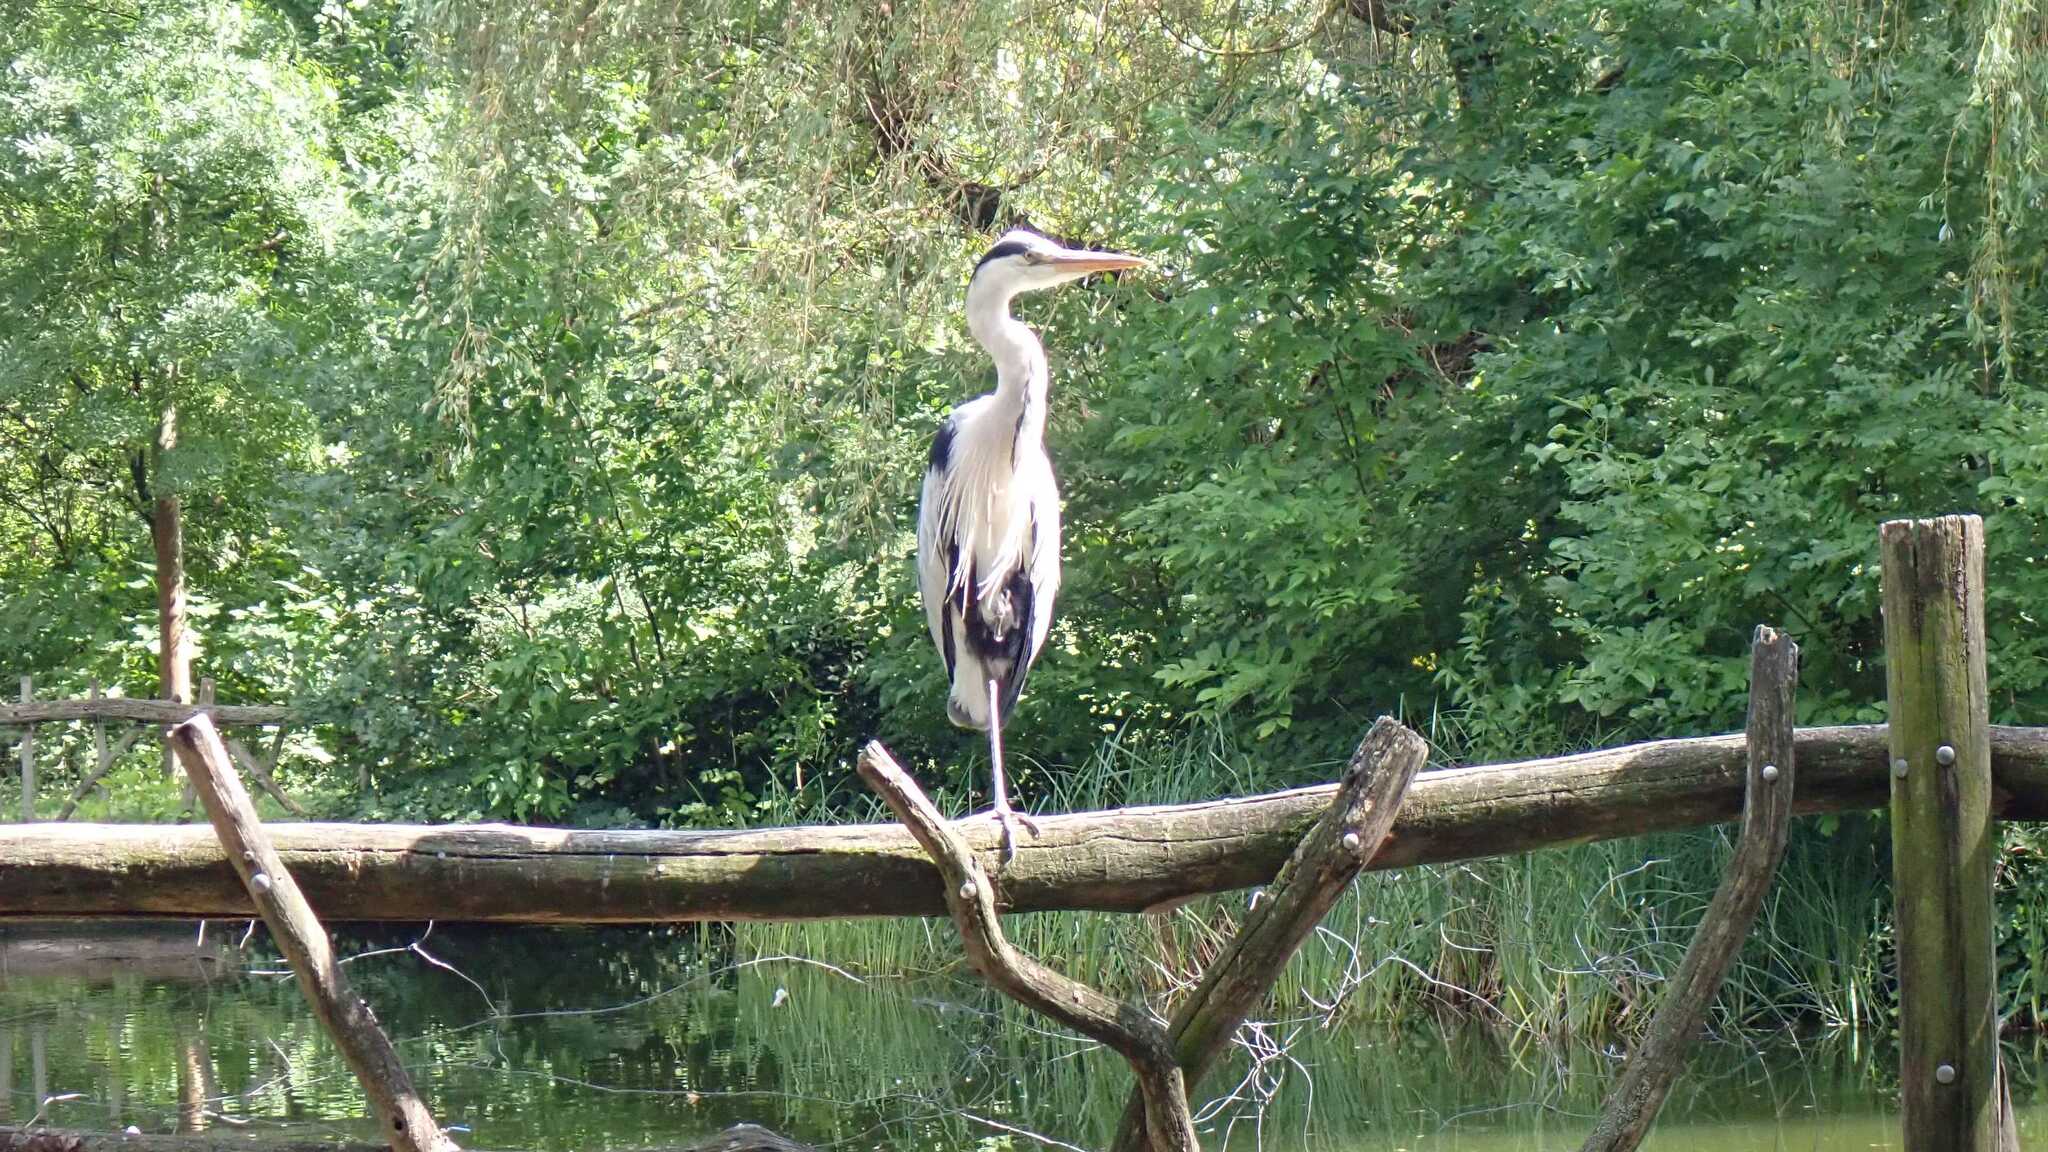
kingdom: Animalia
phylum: Chordata
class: Aves
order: Pelecaniformes
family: Ardeidae
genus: Ardea
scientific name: Ardea cinerea
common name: Grey heron
